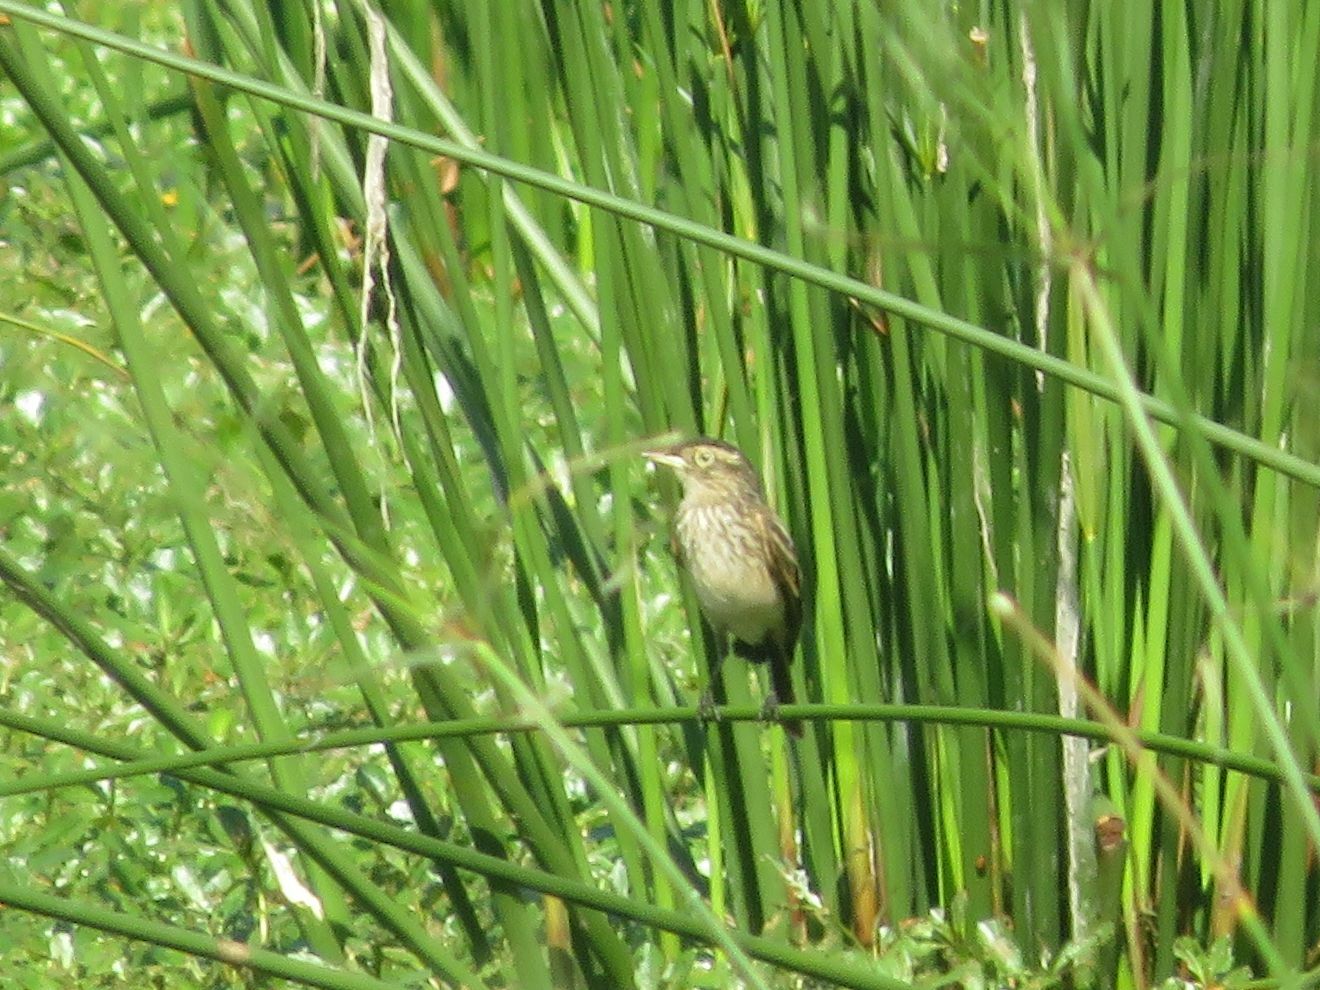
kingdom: Animalia
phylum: Chordata
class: Aves
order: Passeriformes
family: Tyrannidae
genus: Hymenops
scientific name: Hymenops perspicillatus
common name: Spectacled tyrant
